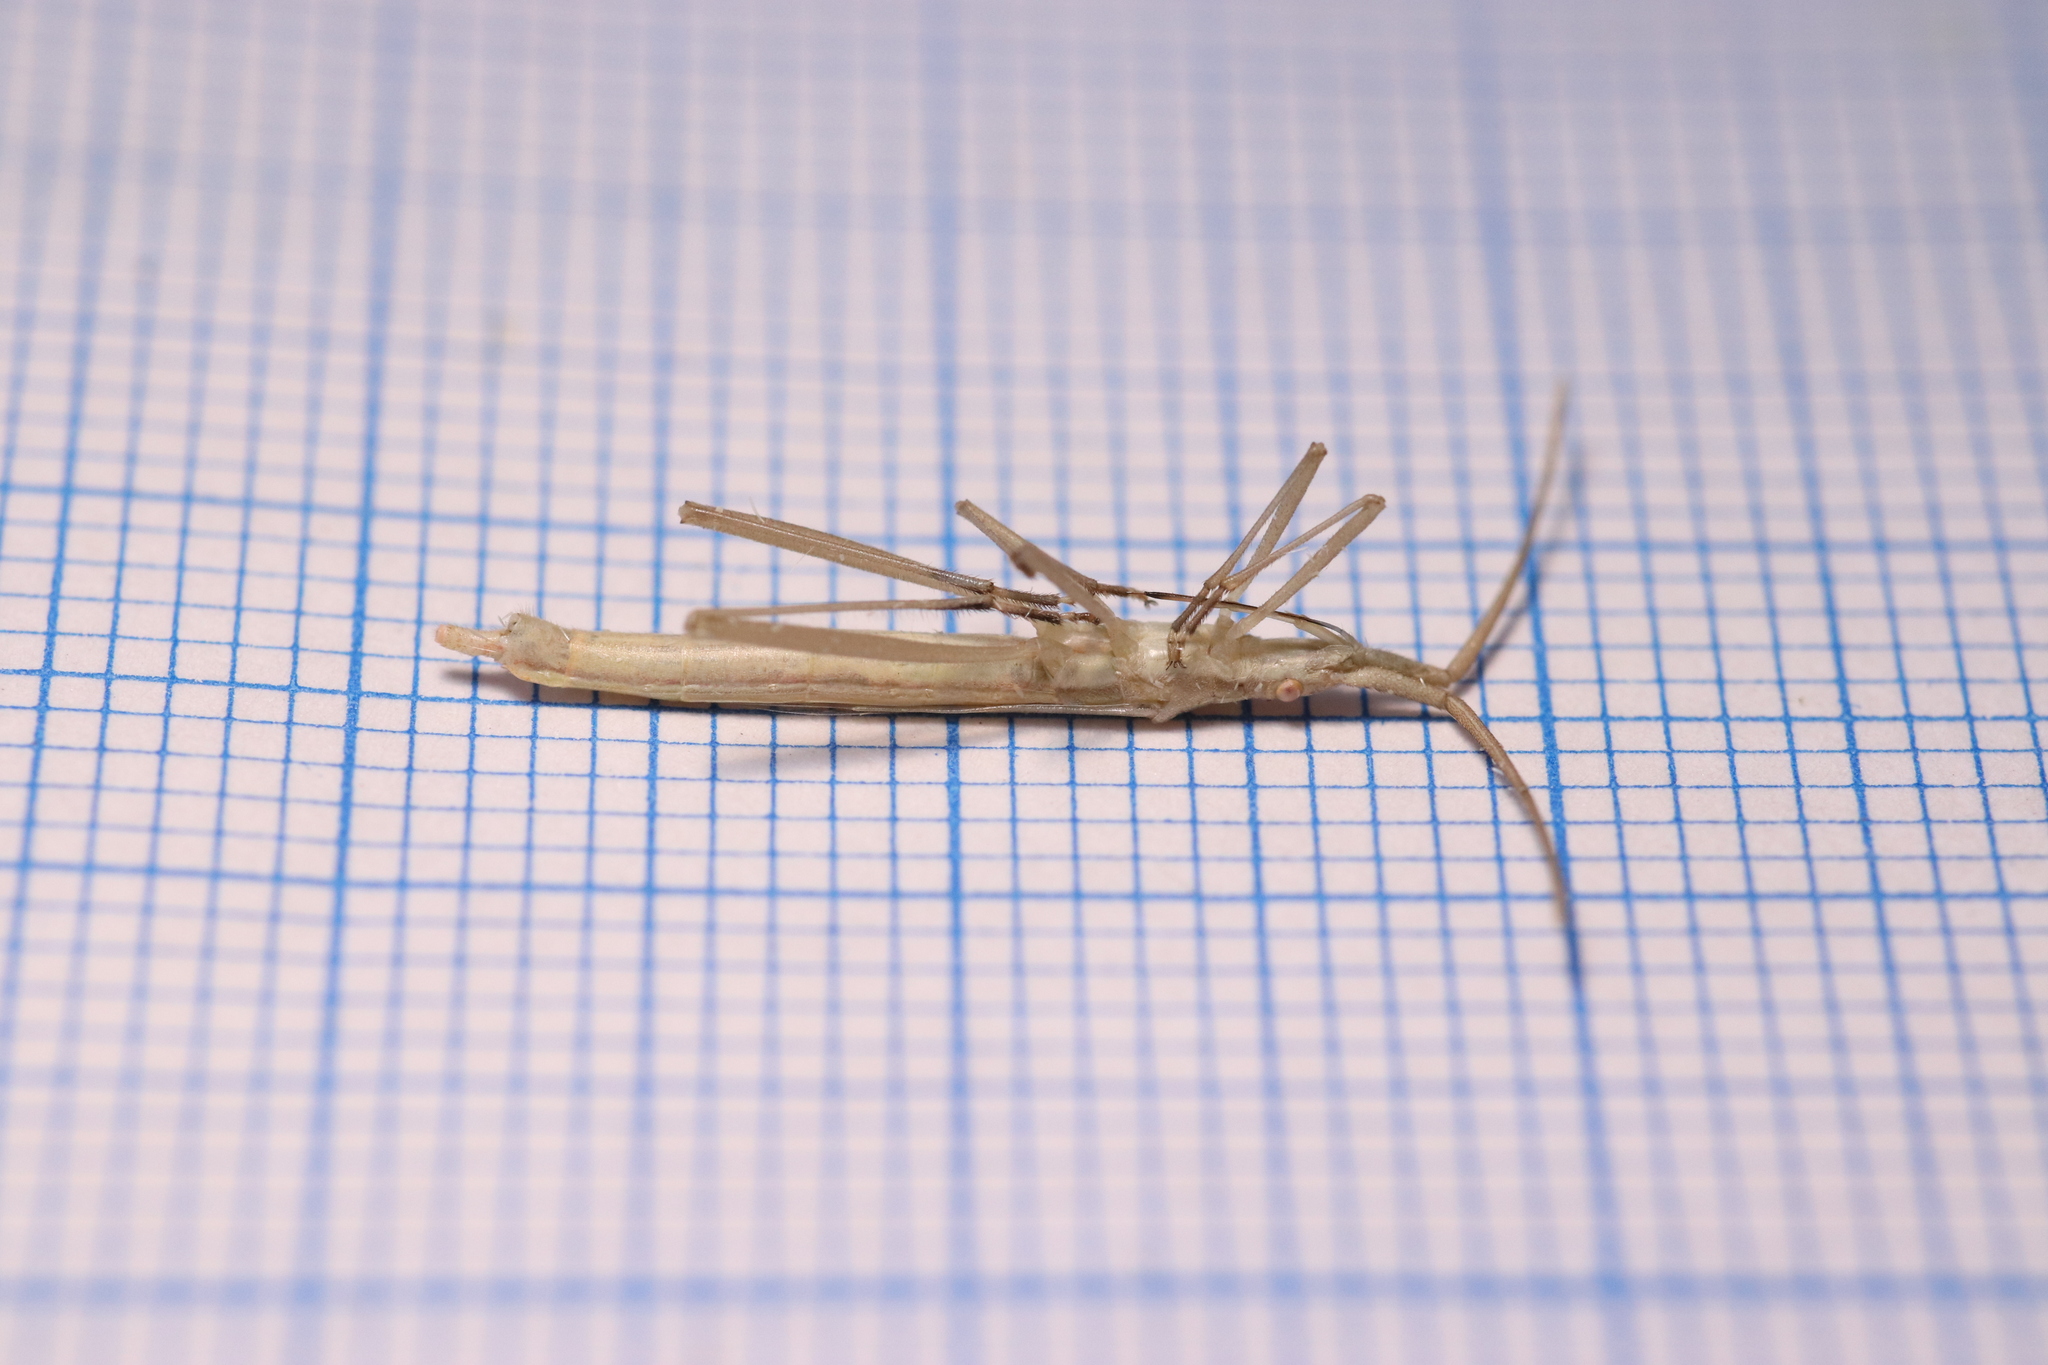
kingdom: Animalia
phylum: Arthropoda
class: Insecta
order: Hemiptera
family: Rhopalidae
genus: Chorosoma
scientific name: Chorosoma schillingii
